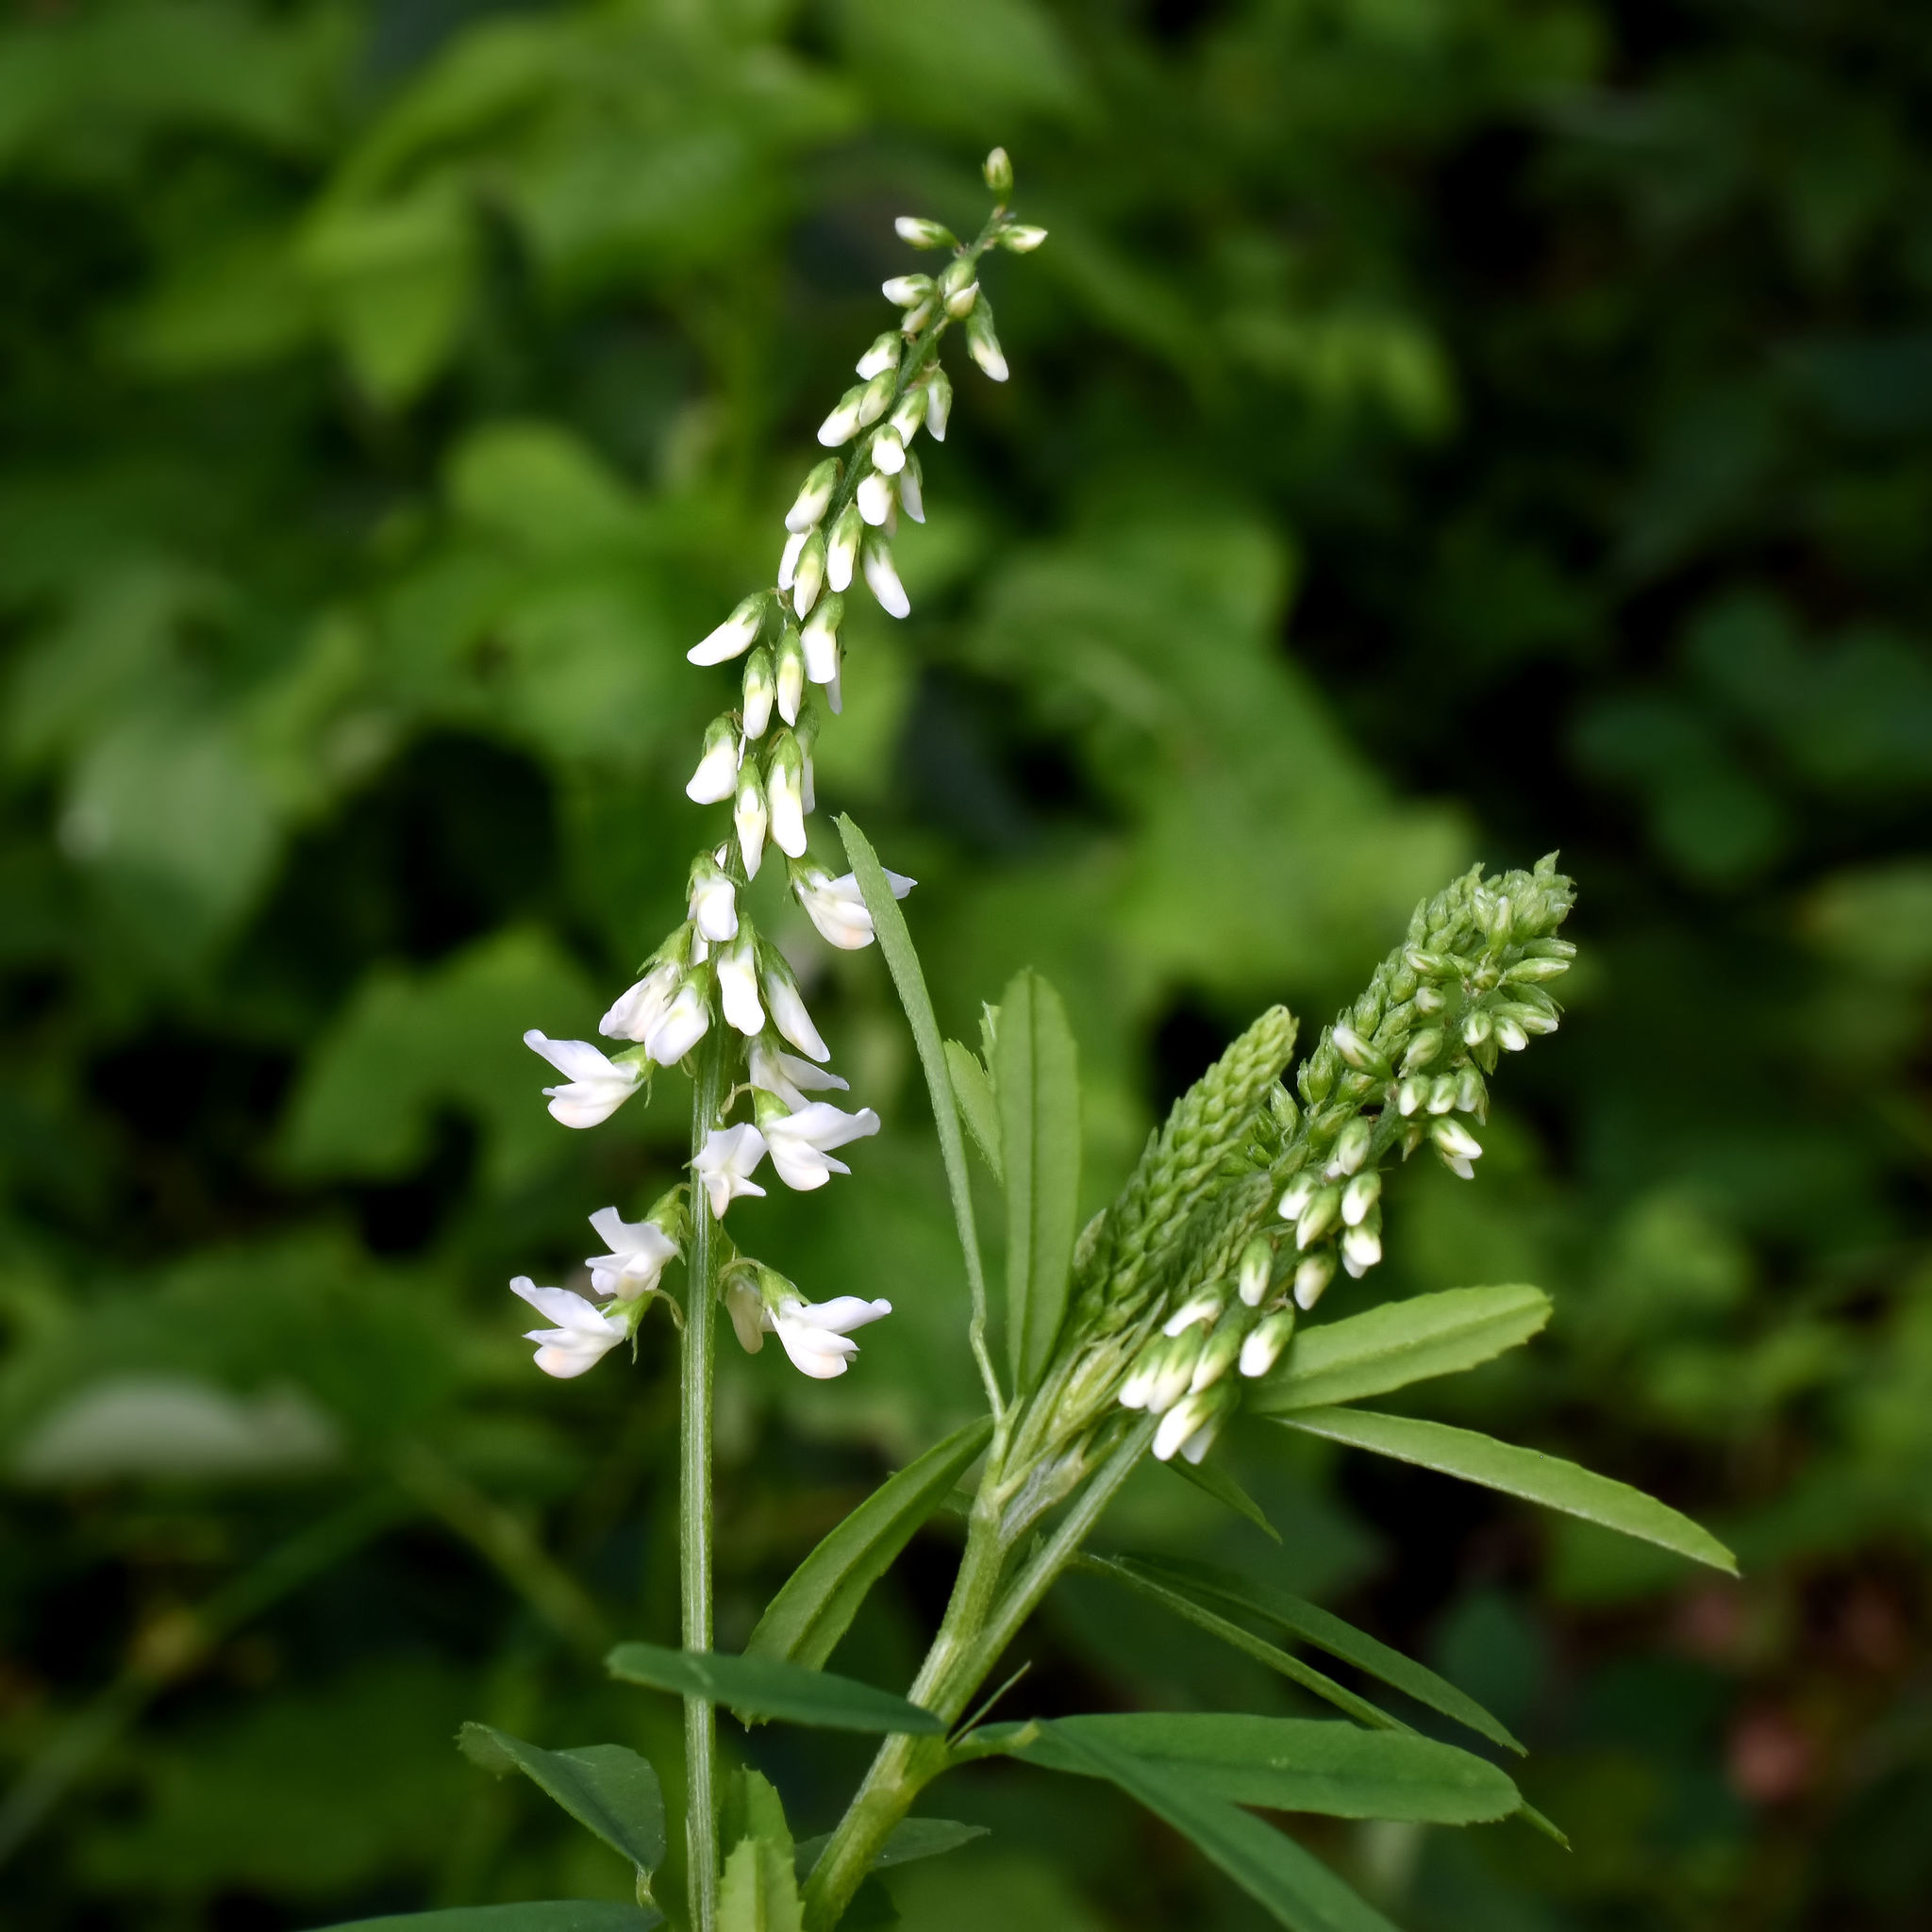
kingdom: Plantae
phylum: Tracheophyta
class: Magnoliopsida
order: Fabales
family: Fabaceae
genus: Melilotus
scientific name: Melilotus albus
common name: White melilot
